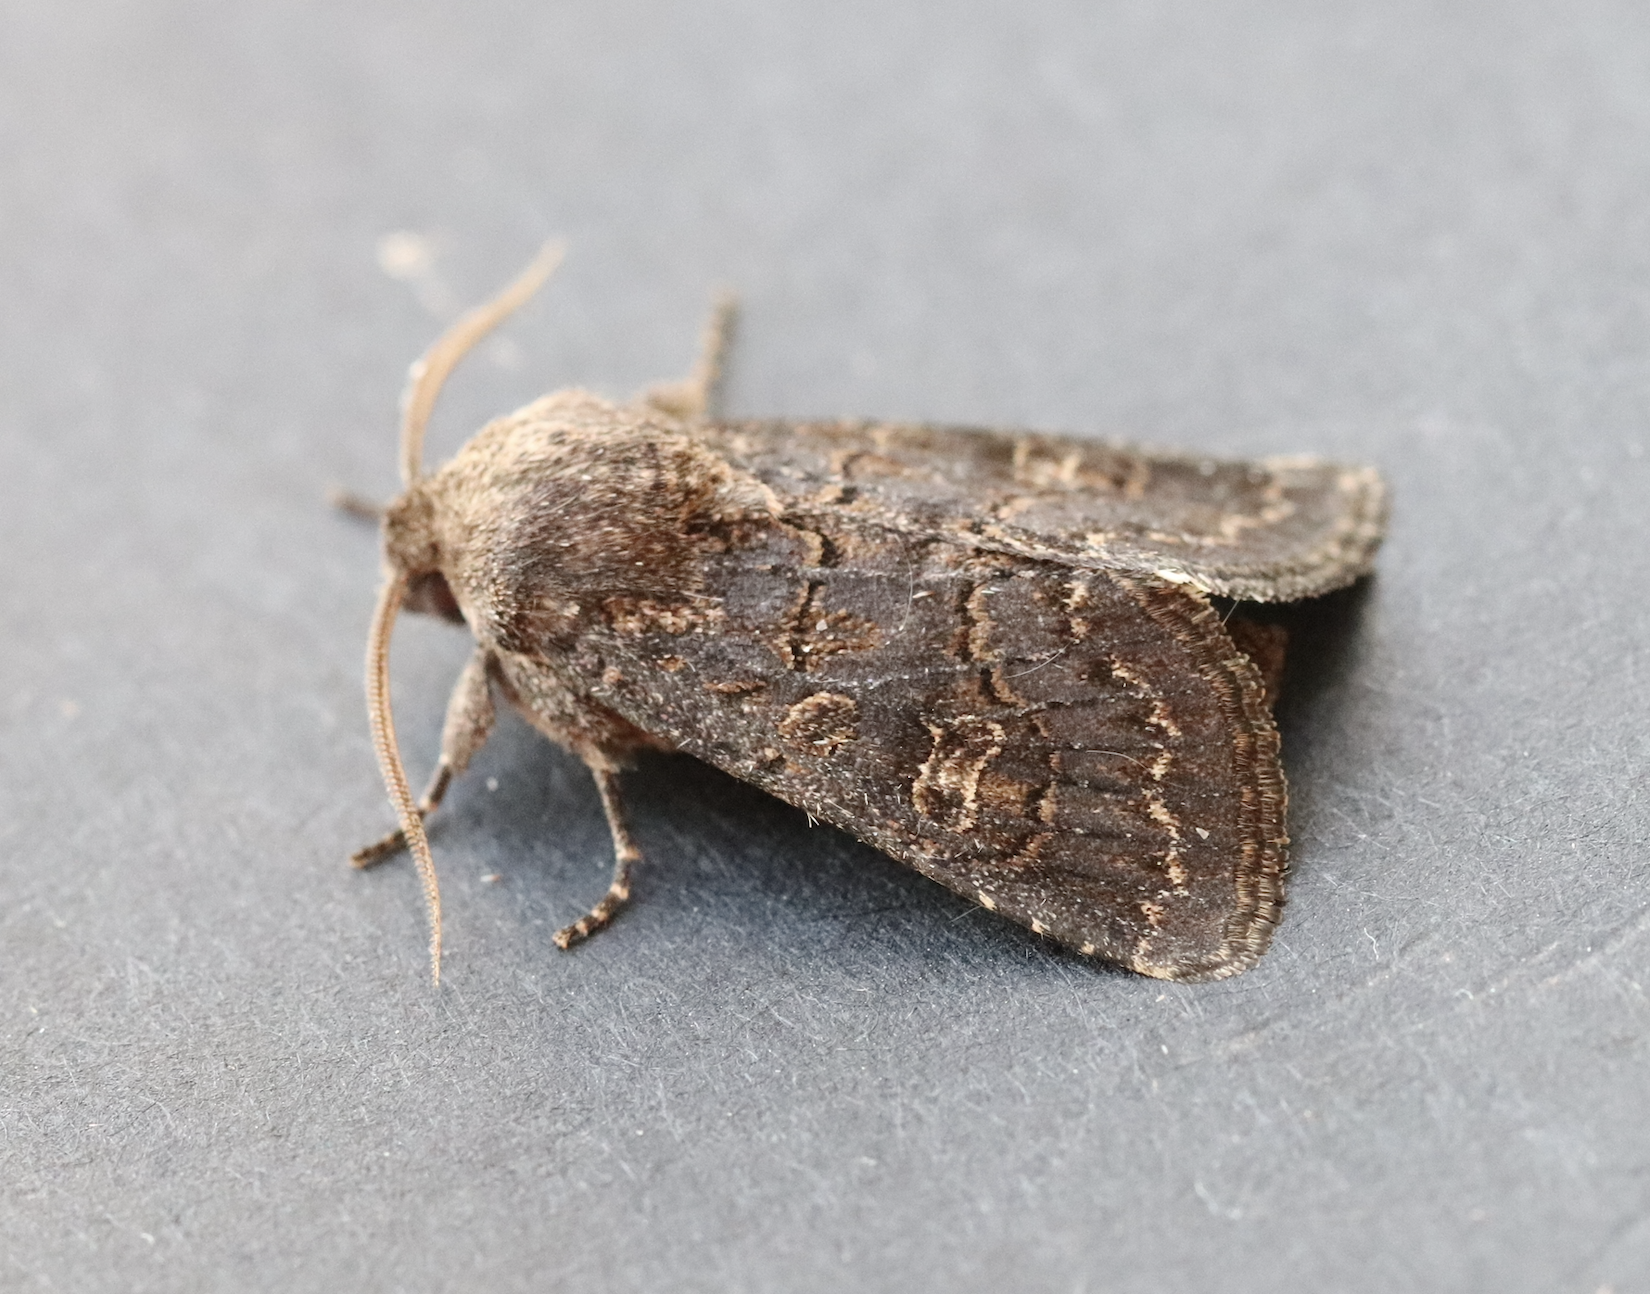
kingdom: Animalia
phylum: Arthropoda
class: Insecta
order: Lepidoptera
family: Noctuidae
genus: Tholera
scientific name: Tholera cespitis
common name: Hedge rustic
